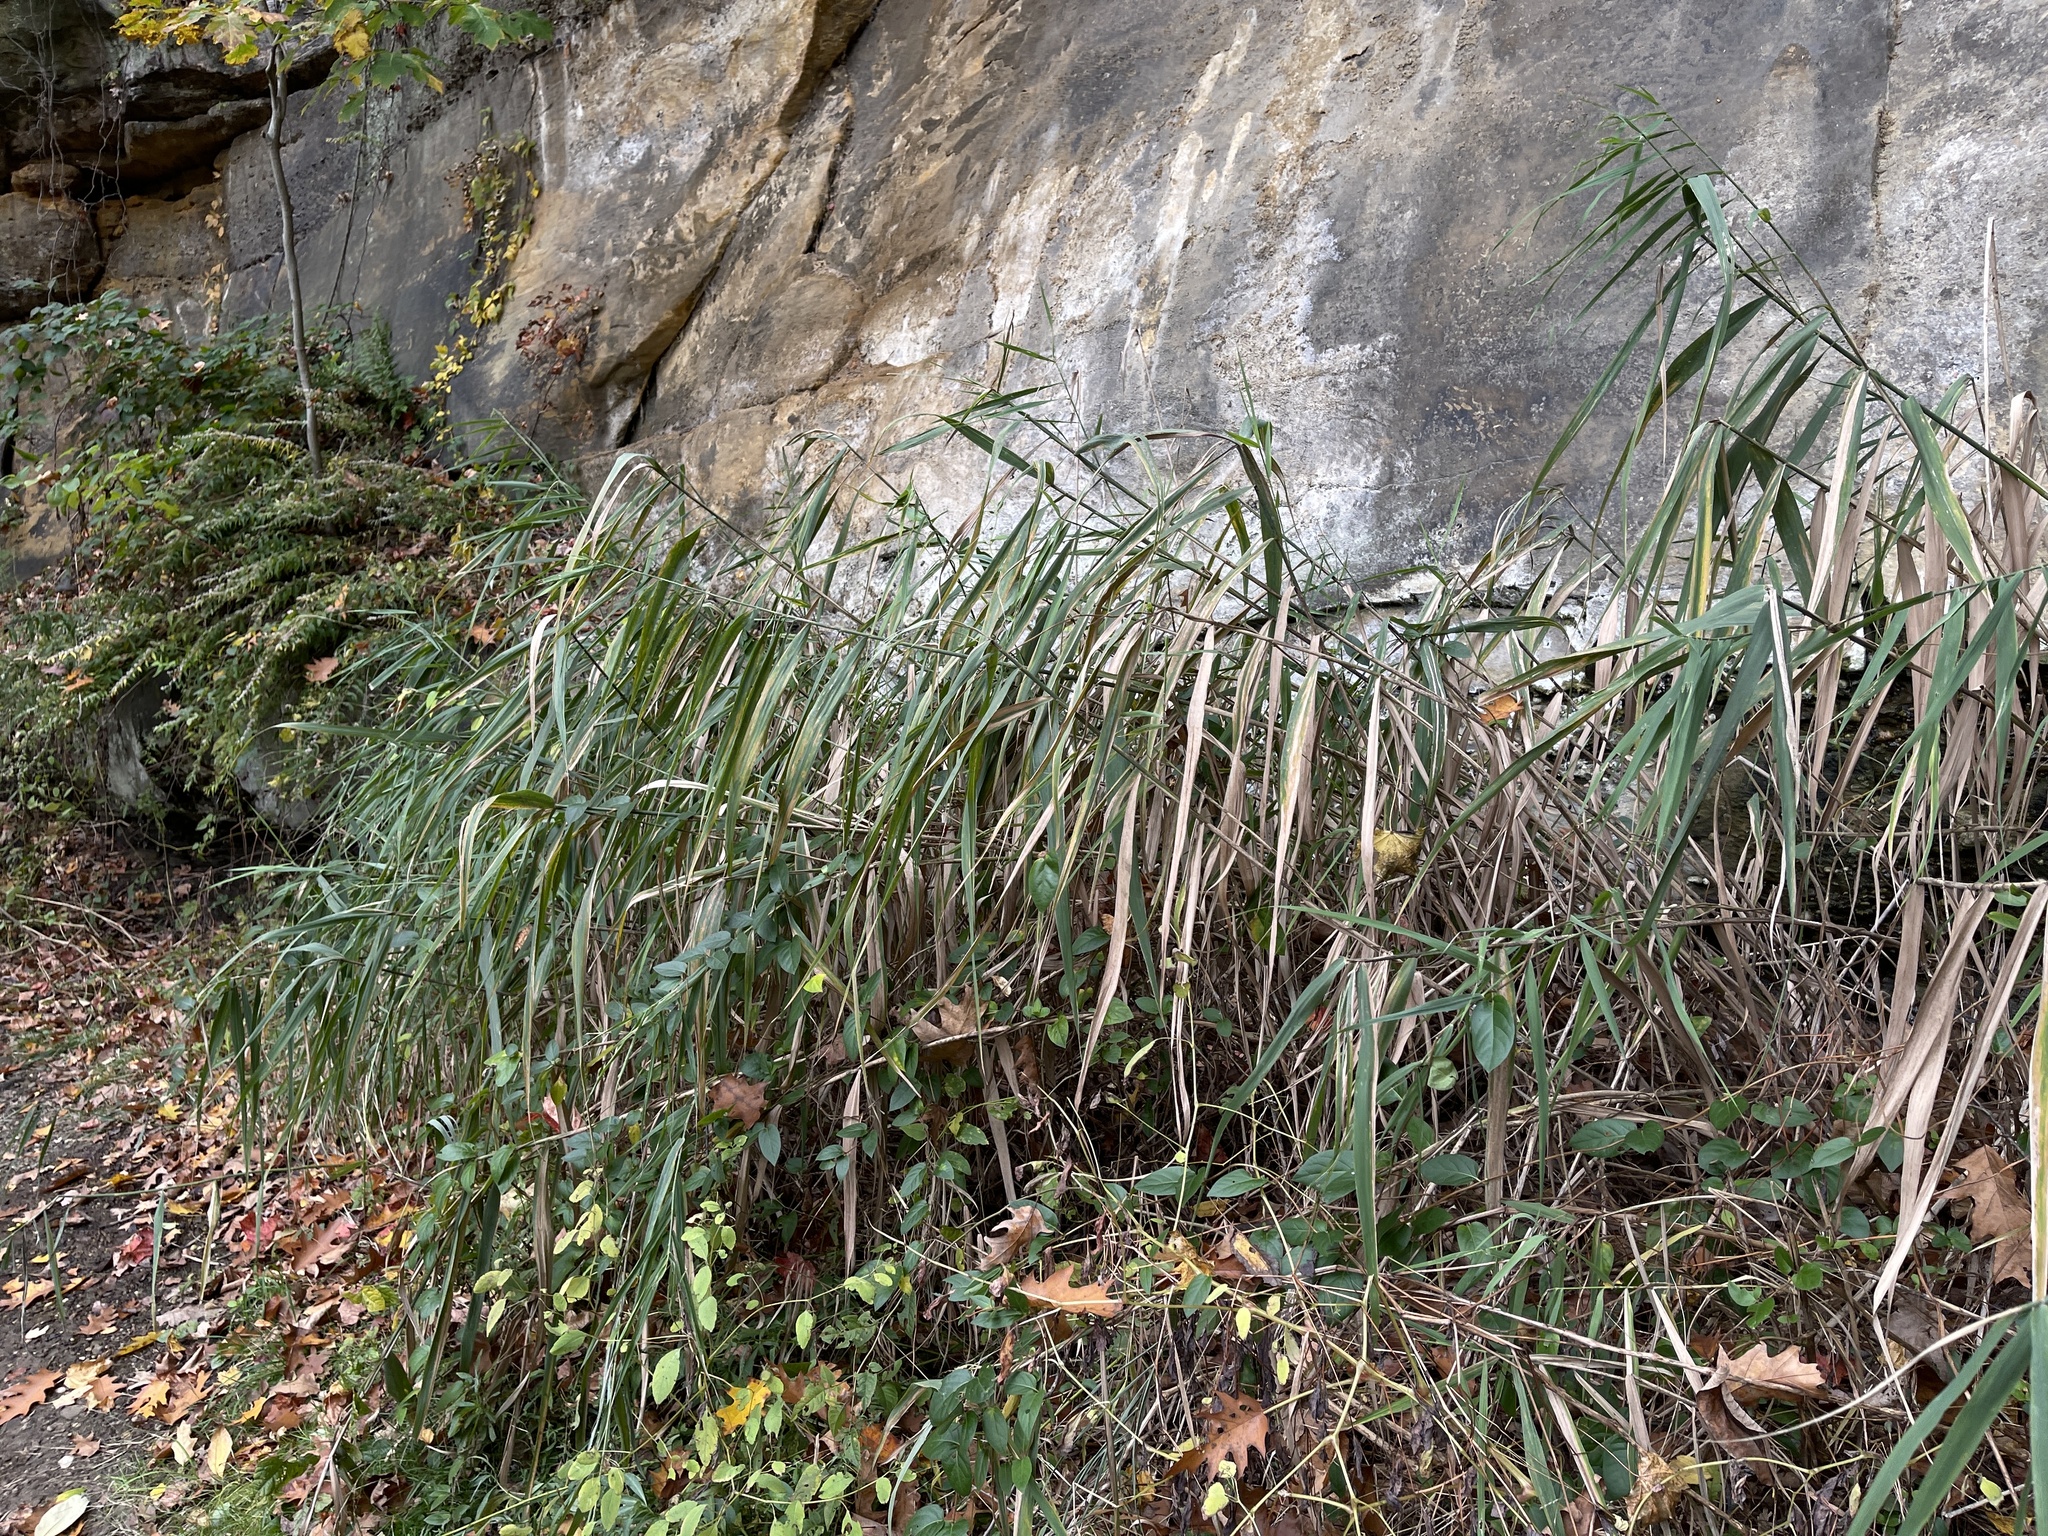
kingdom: Plantae
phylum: Tracheophyta
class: Liliopsida
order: Poales
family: Poaceae
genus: Phragmites
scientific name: Phragmites australis
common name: Common reed
